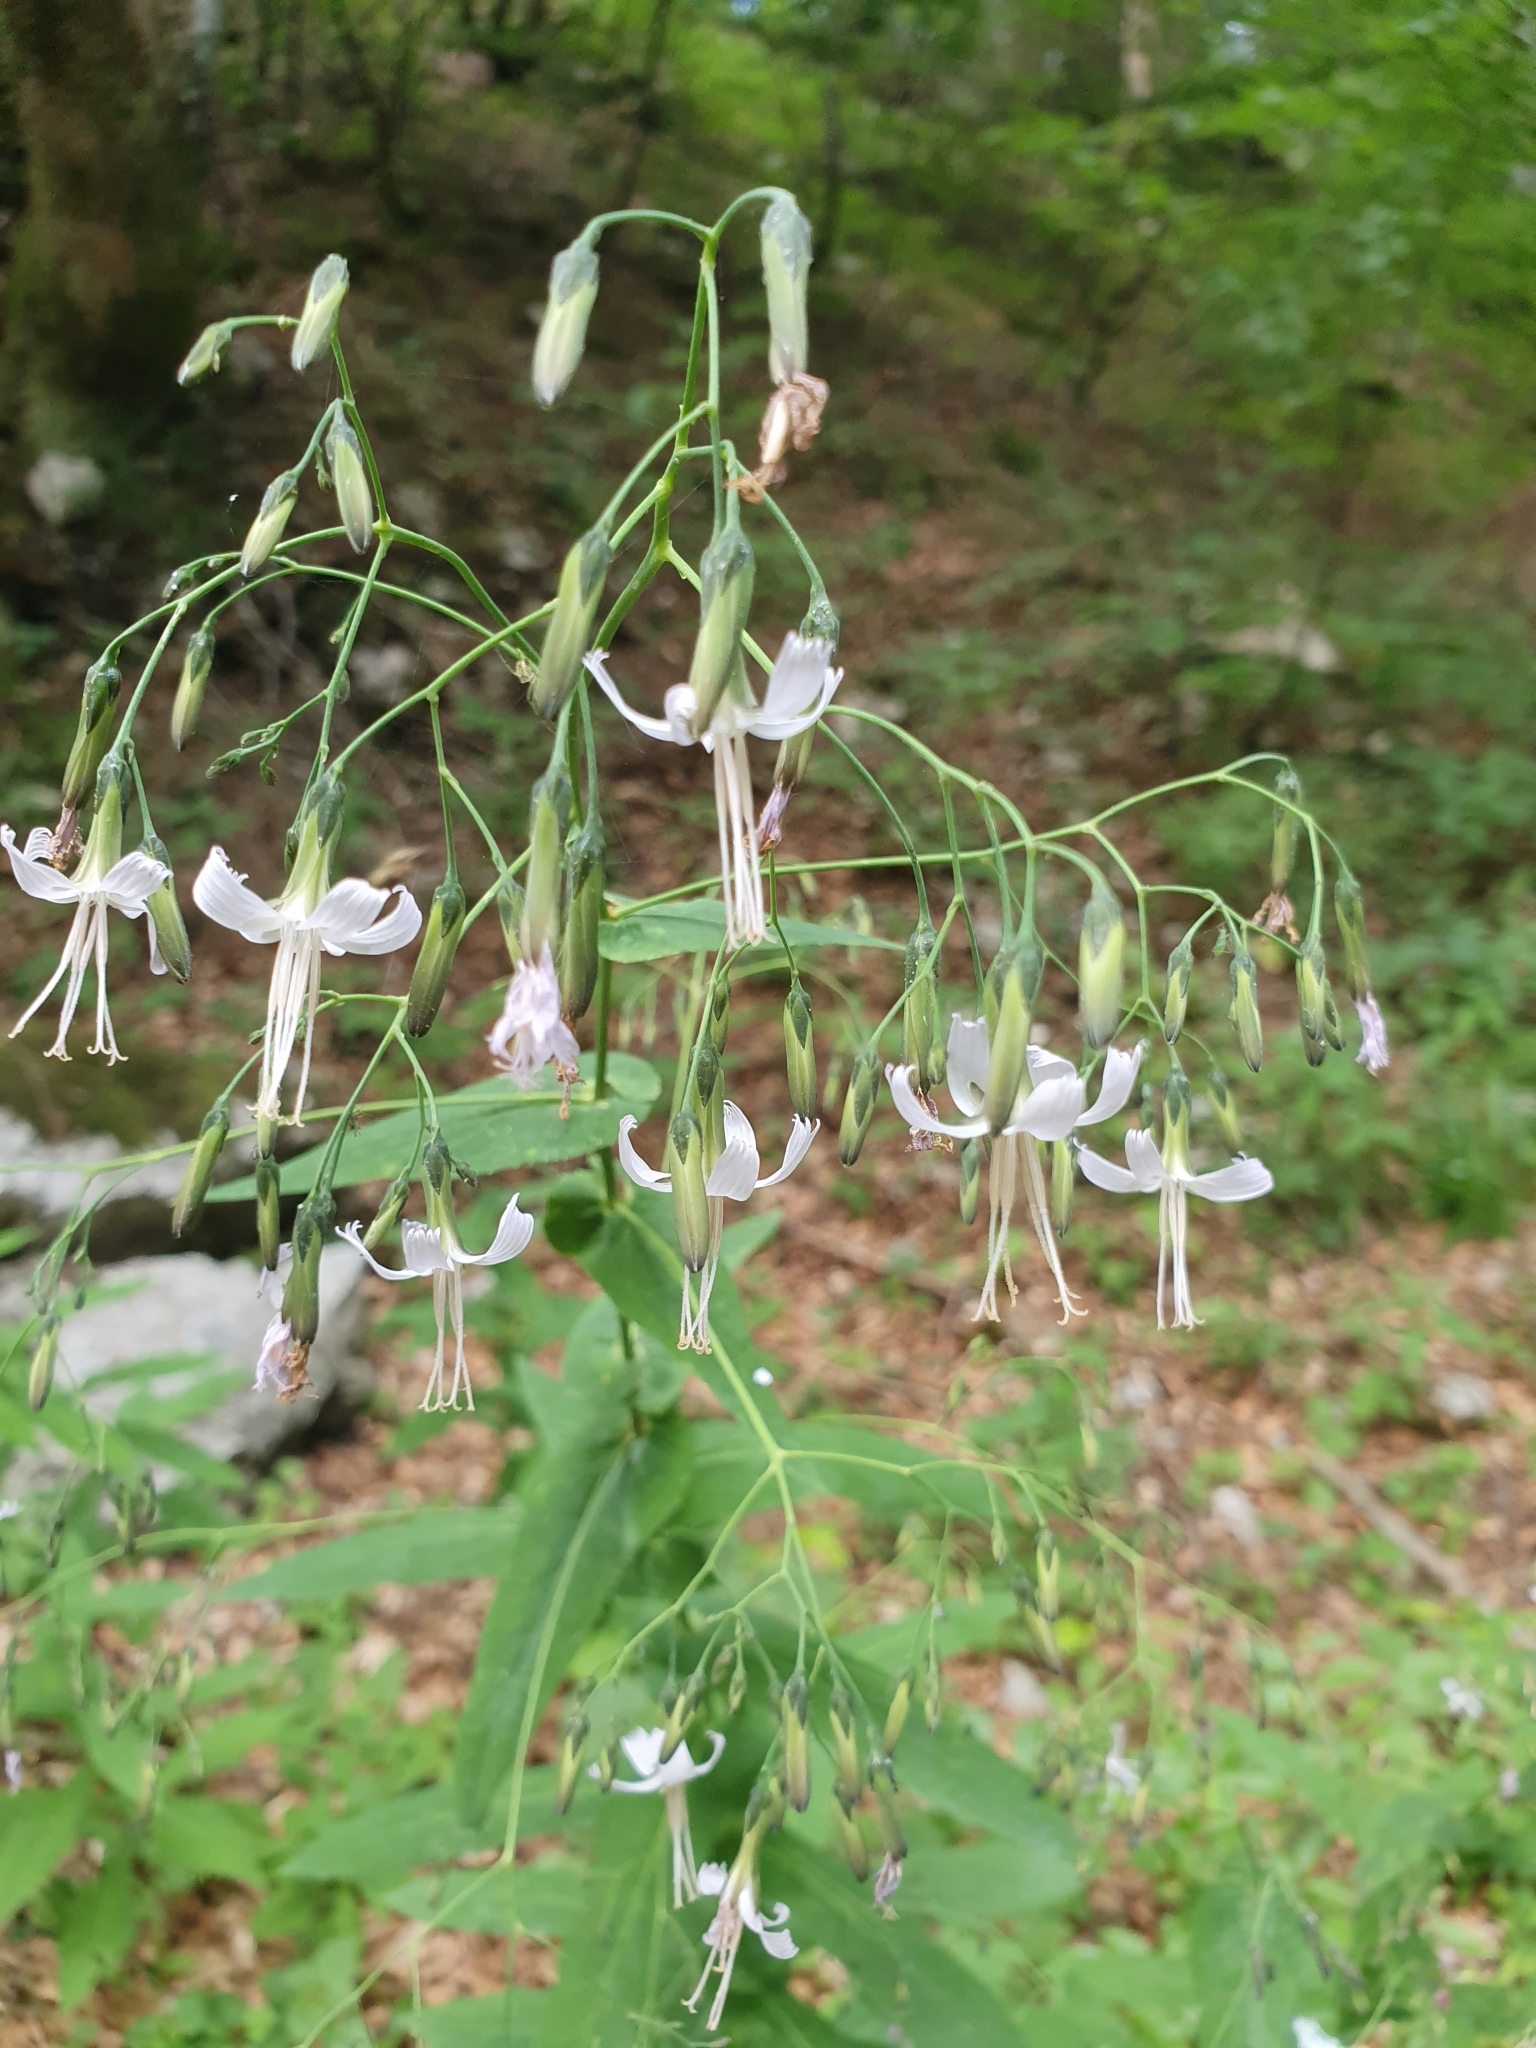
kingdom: Plantae
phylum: Tracheophyta
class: Magnoliopsida
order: Asterales
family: Asteraceae
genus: Prenanthes
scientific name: Prenanthes purpurea
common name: Purple lettuce
